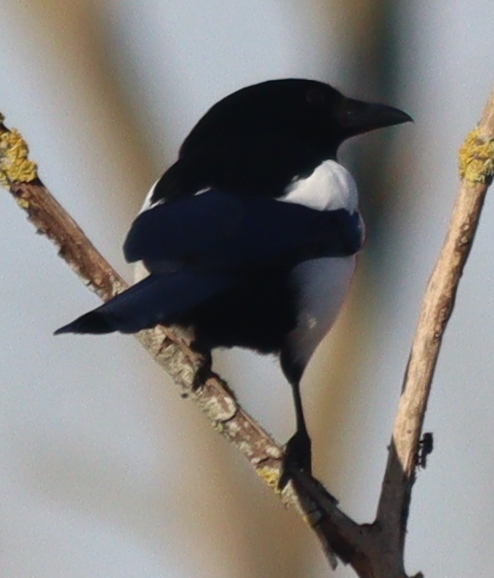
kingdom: Animalia
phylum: Chordata
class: Aves
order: Passeriformes
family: Corvidae
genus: Pica
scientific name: Pica pica
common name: Eurasian magpie
